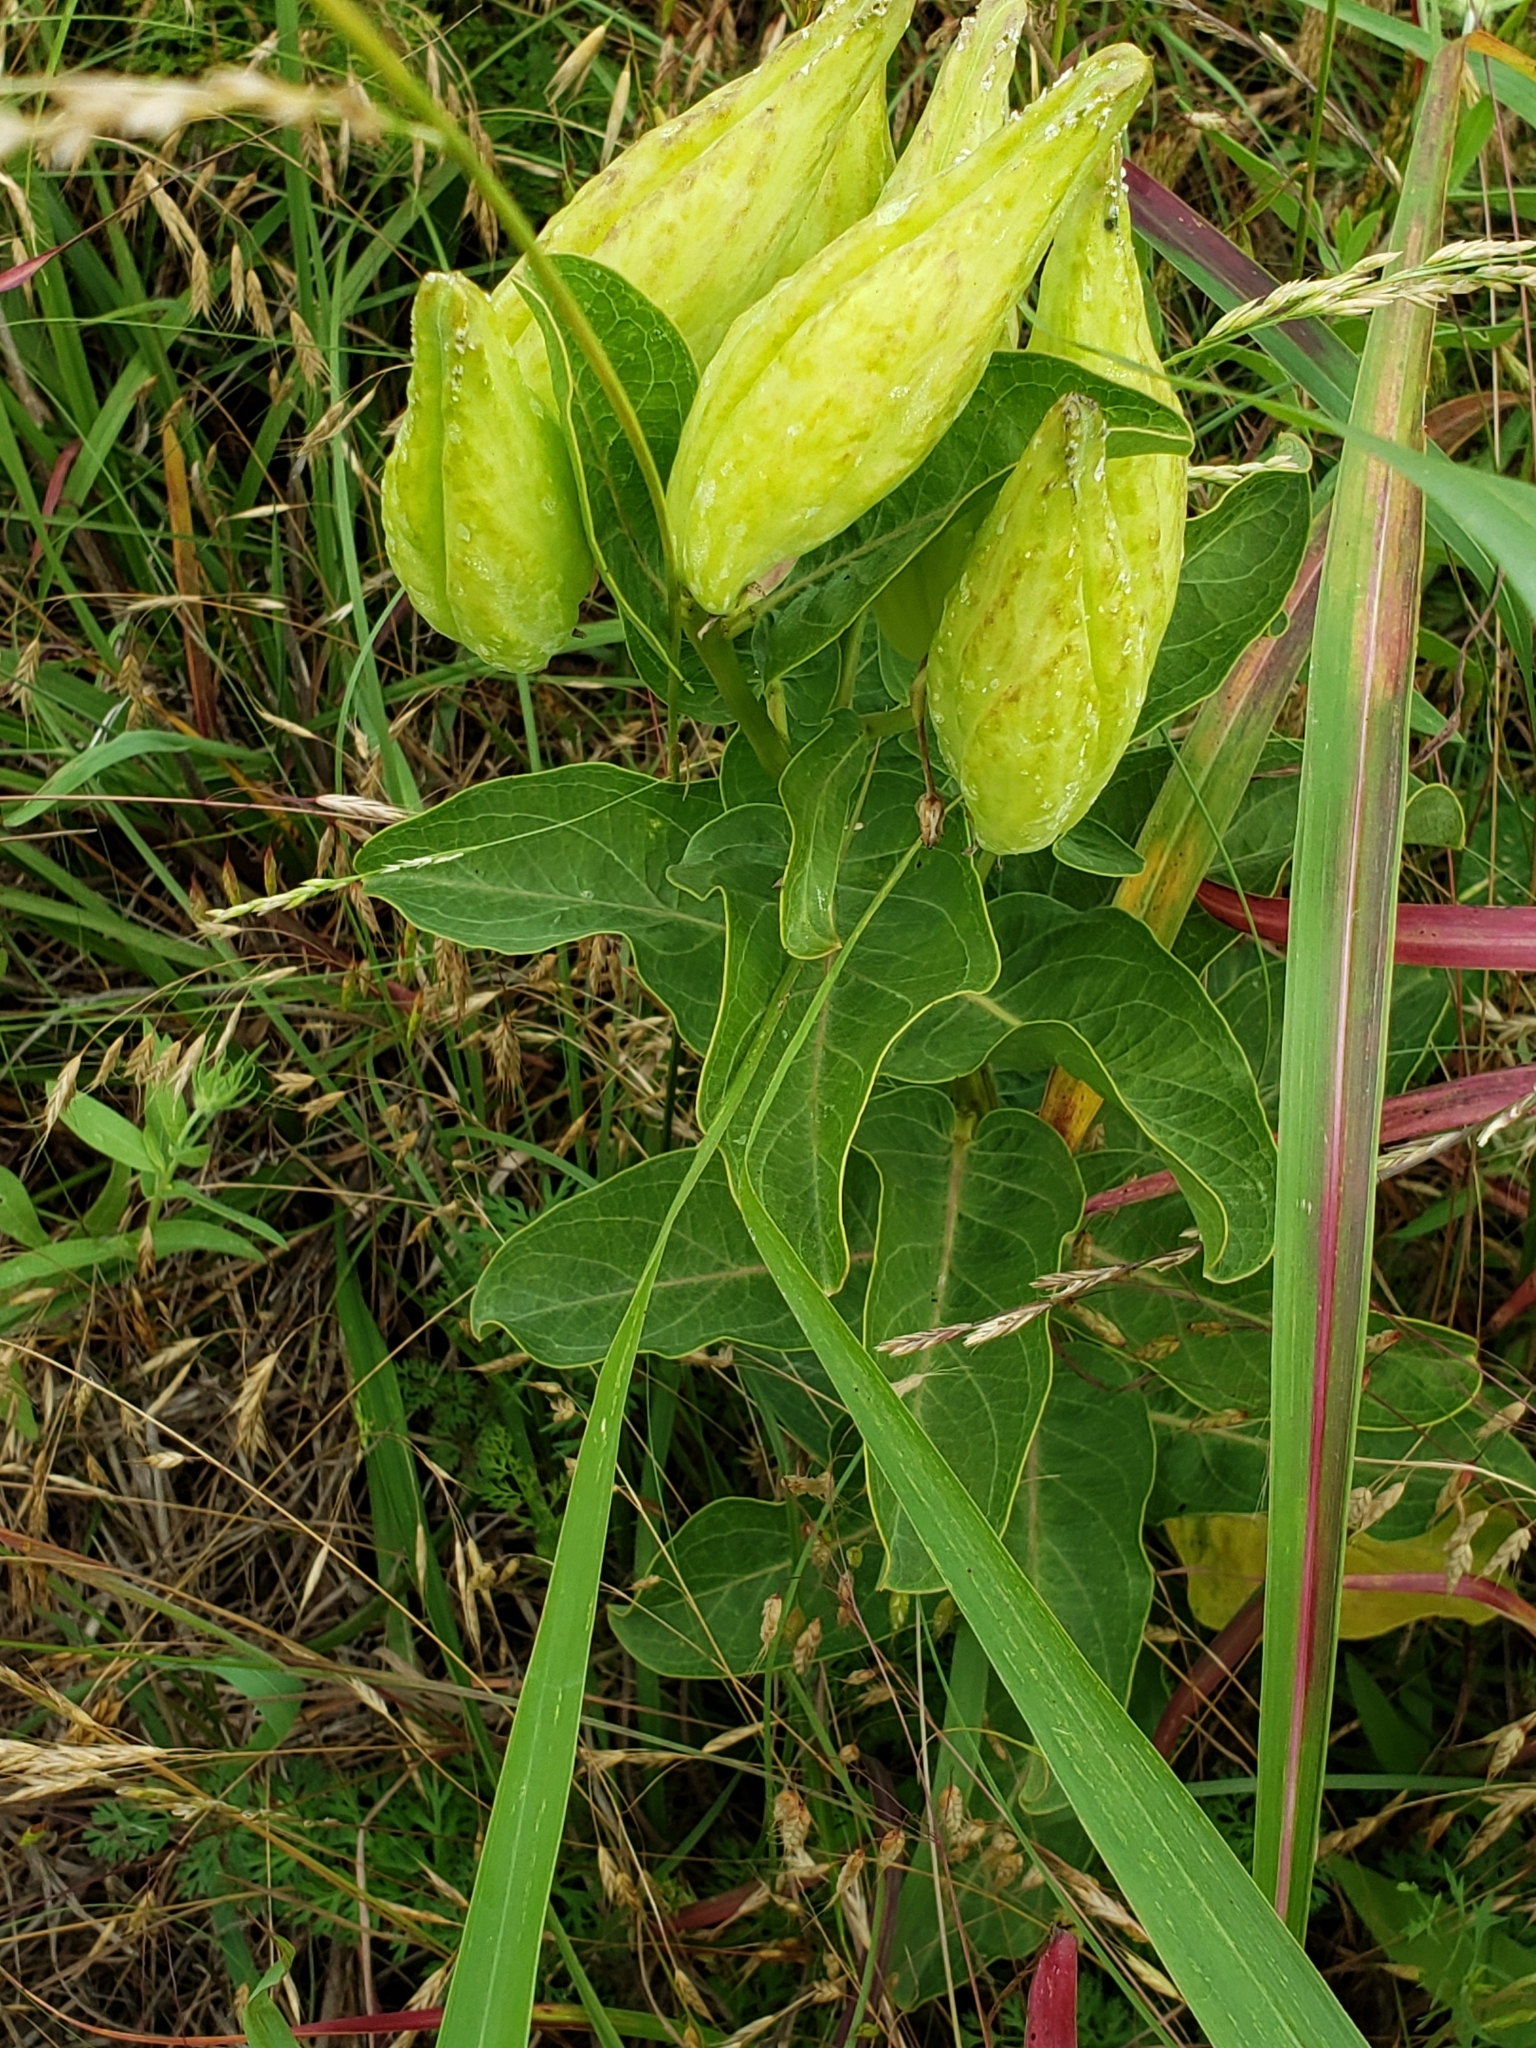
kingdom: Plantae
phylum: Tracheophyta
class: Magnoliopsida
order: Gentianales
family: Apocynaceae
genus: Asclepias
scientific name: Asclepias viridis
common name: Antelope-horns
